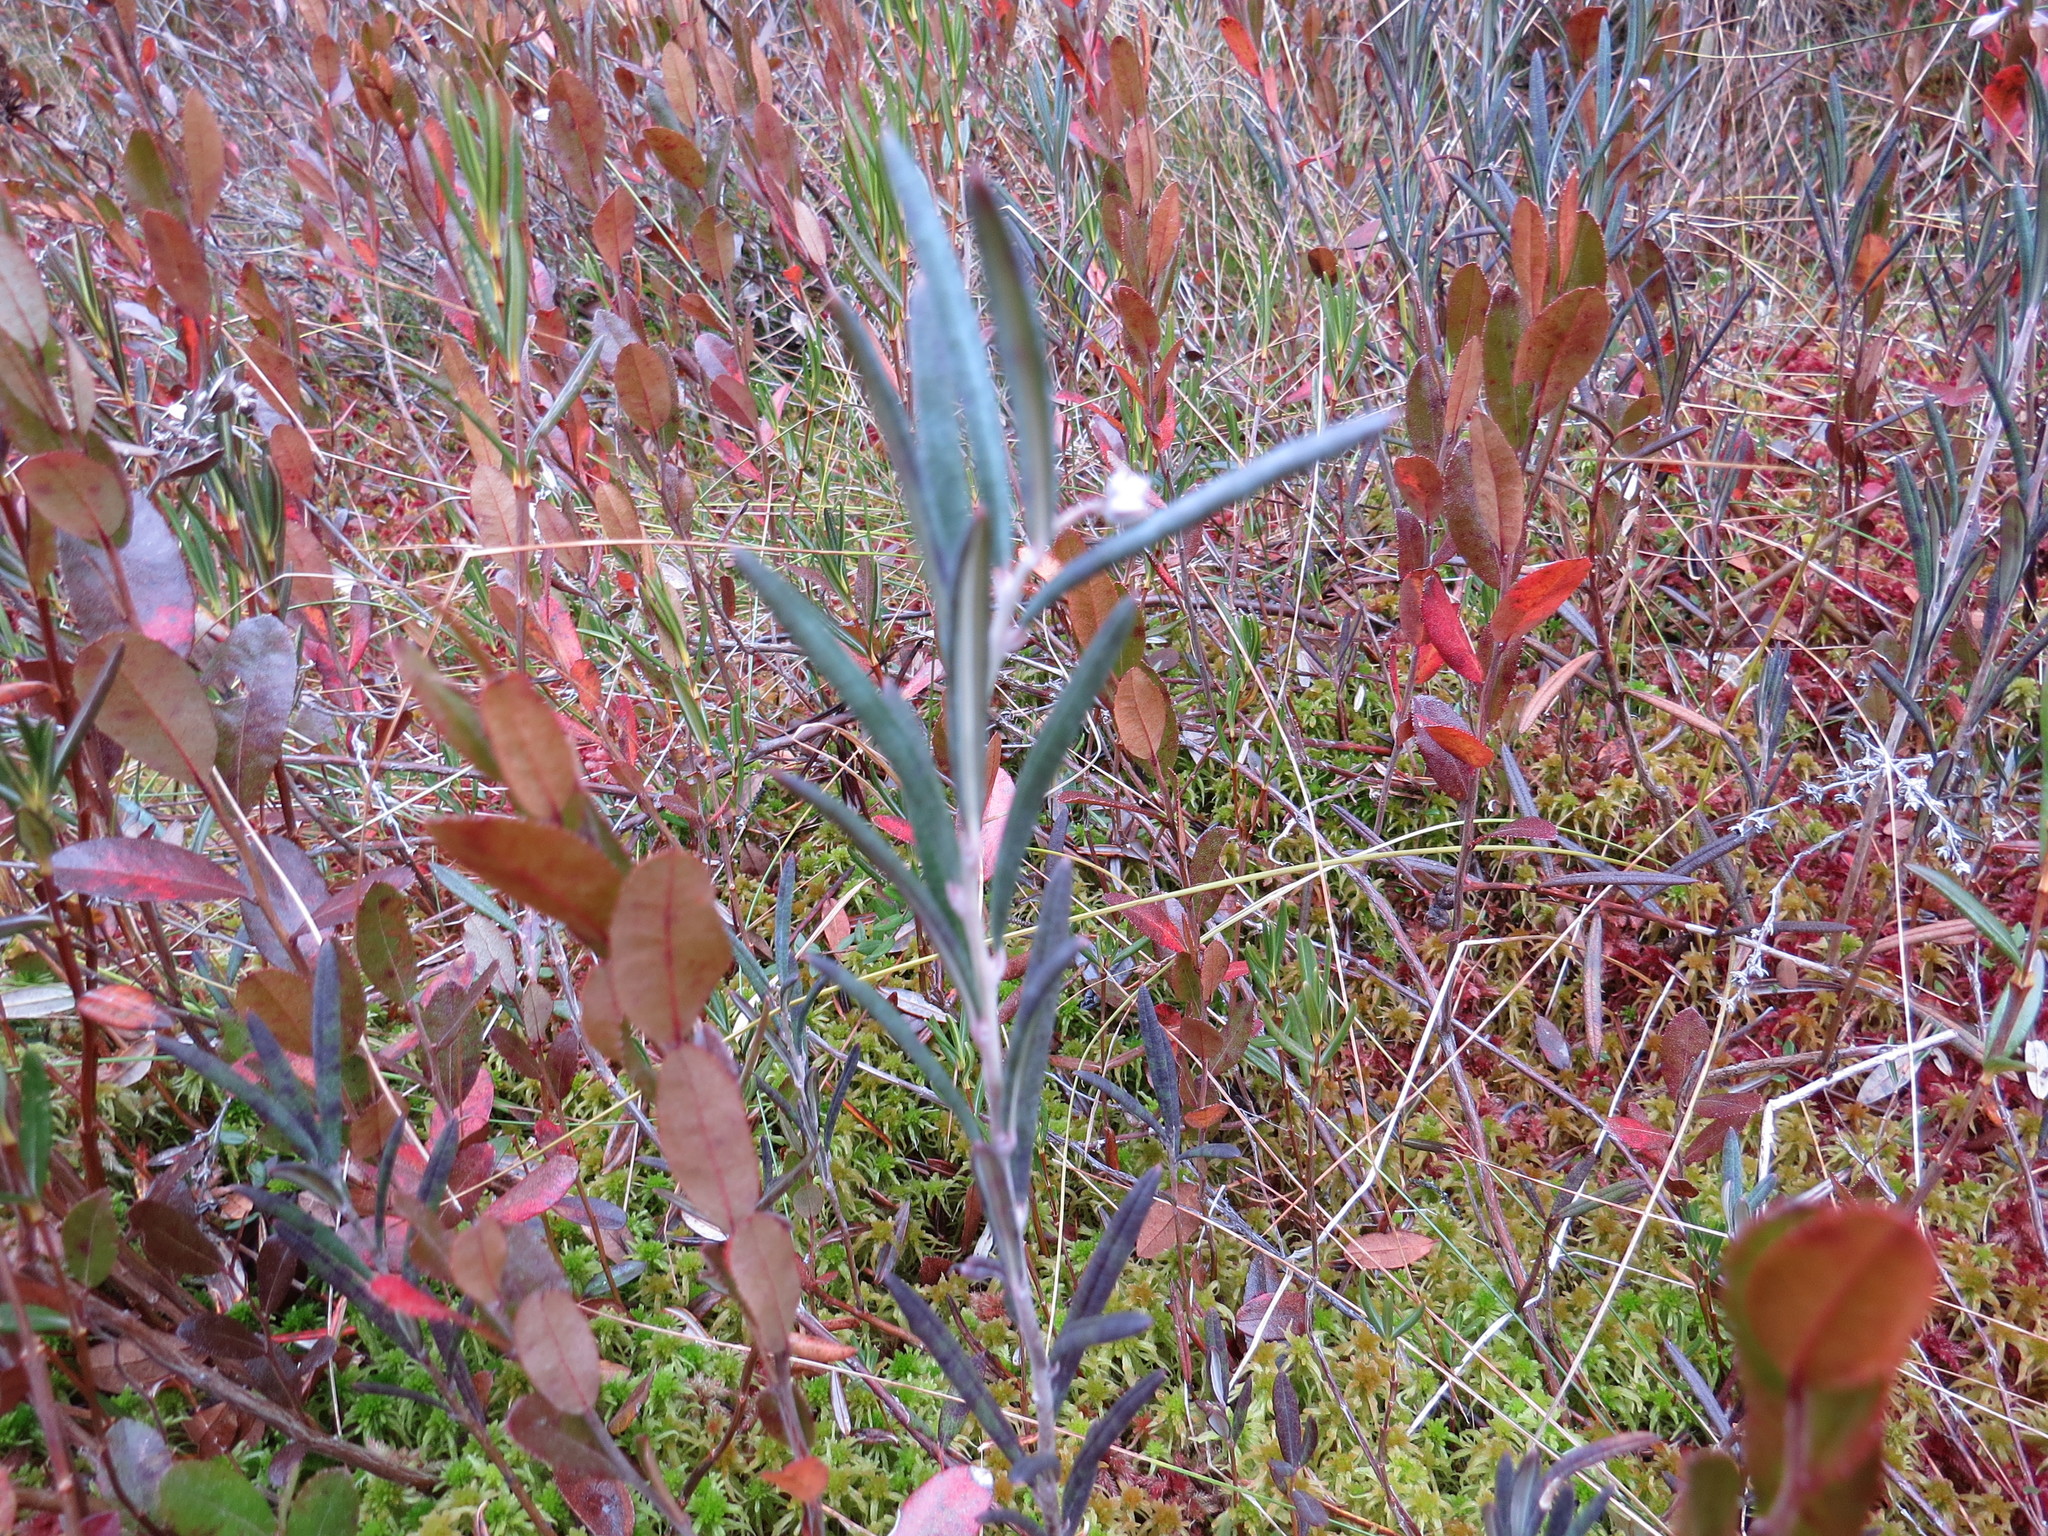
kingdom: Plantae
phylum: Tracheophyta
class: Magnoliopsida
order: Ericales
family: Ericaceae
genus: Andromeda
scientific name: Andromeda polifolia
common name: Bog-rosemary
